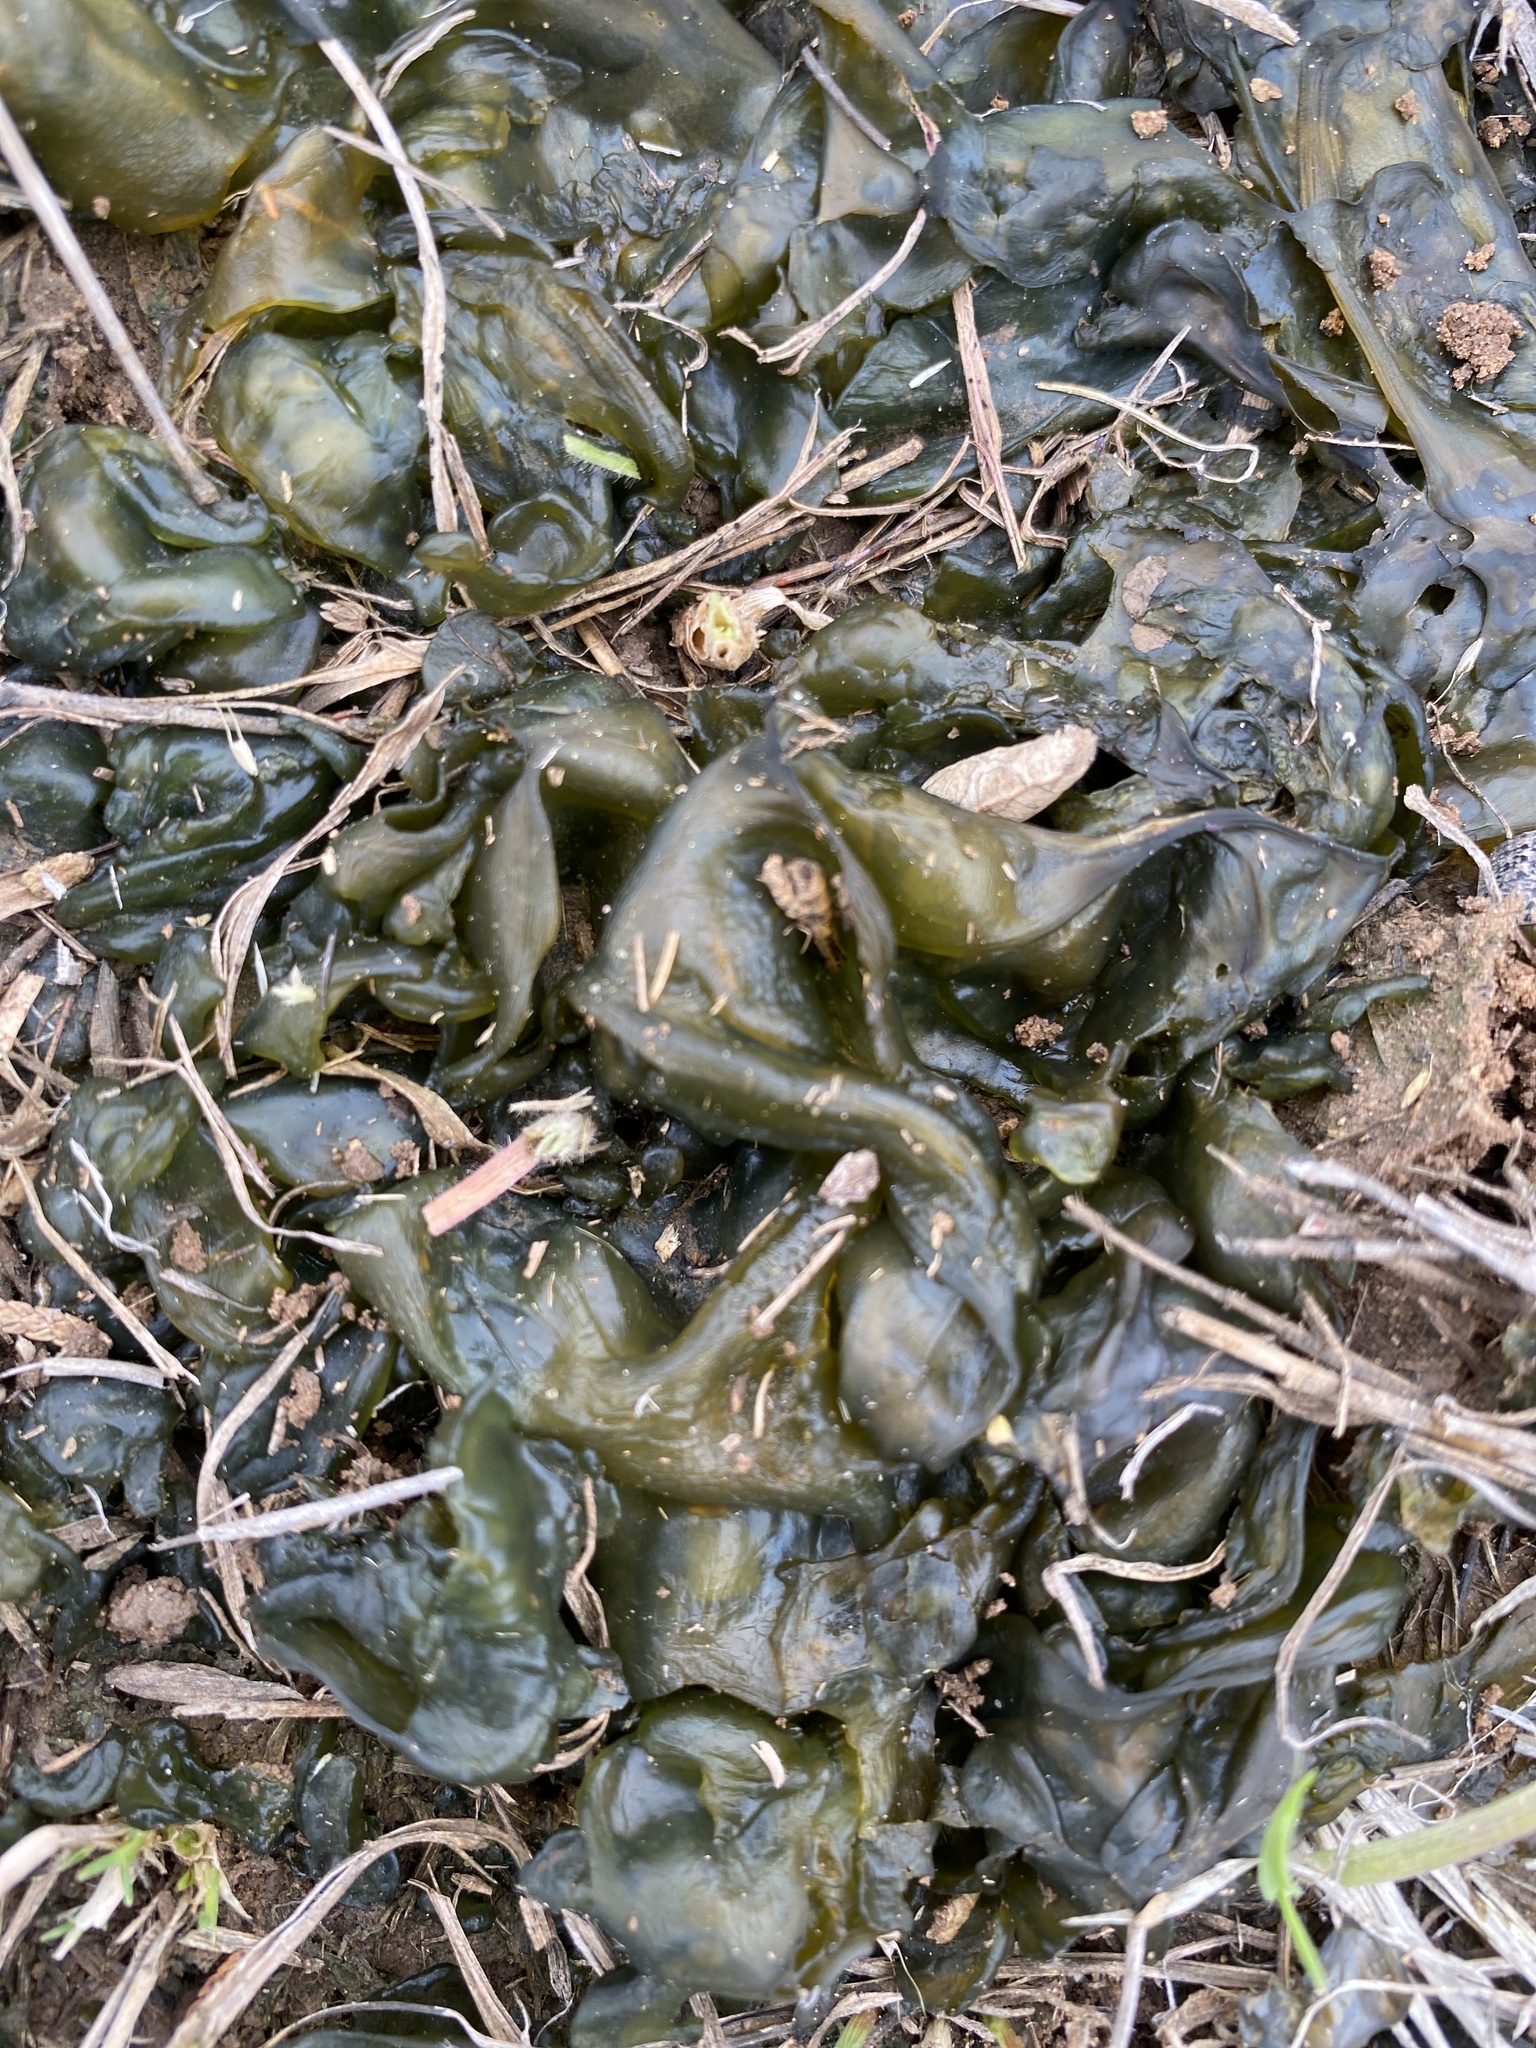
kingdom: Bacteria
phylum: Cyanobacteria
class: Cyanobacteriia
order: Cyanobacteriales
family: Nostocaceae
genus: Nostoc
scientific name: Nostoc commune
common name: Star jelly
